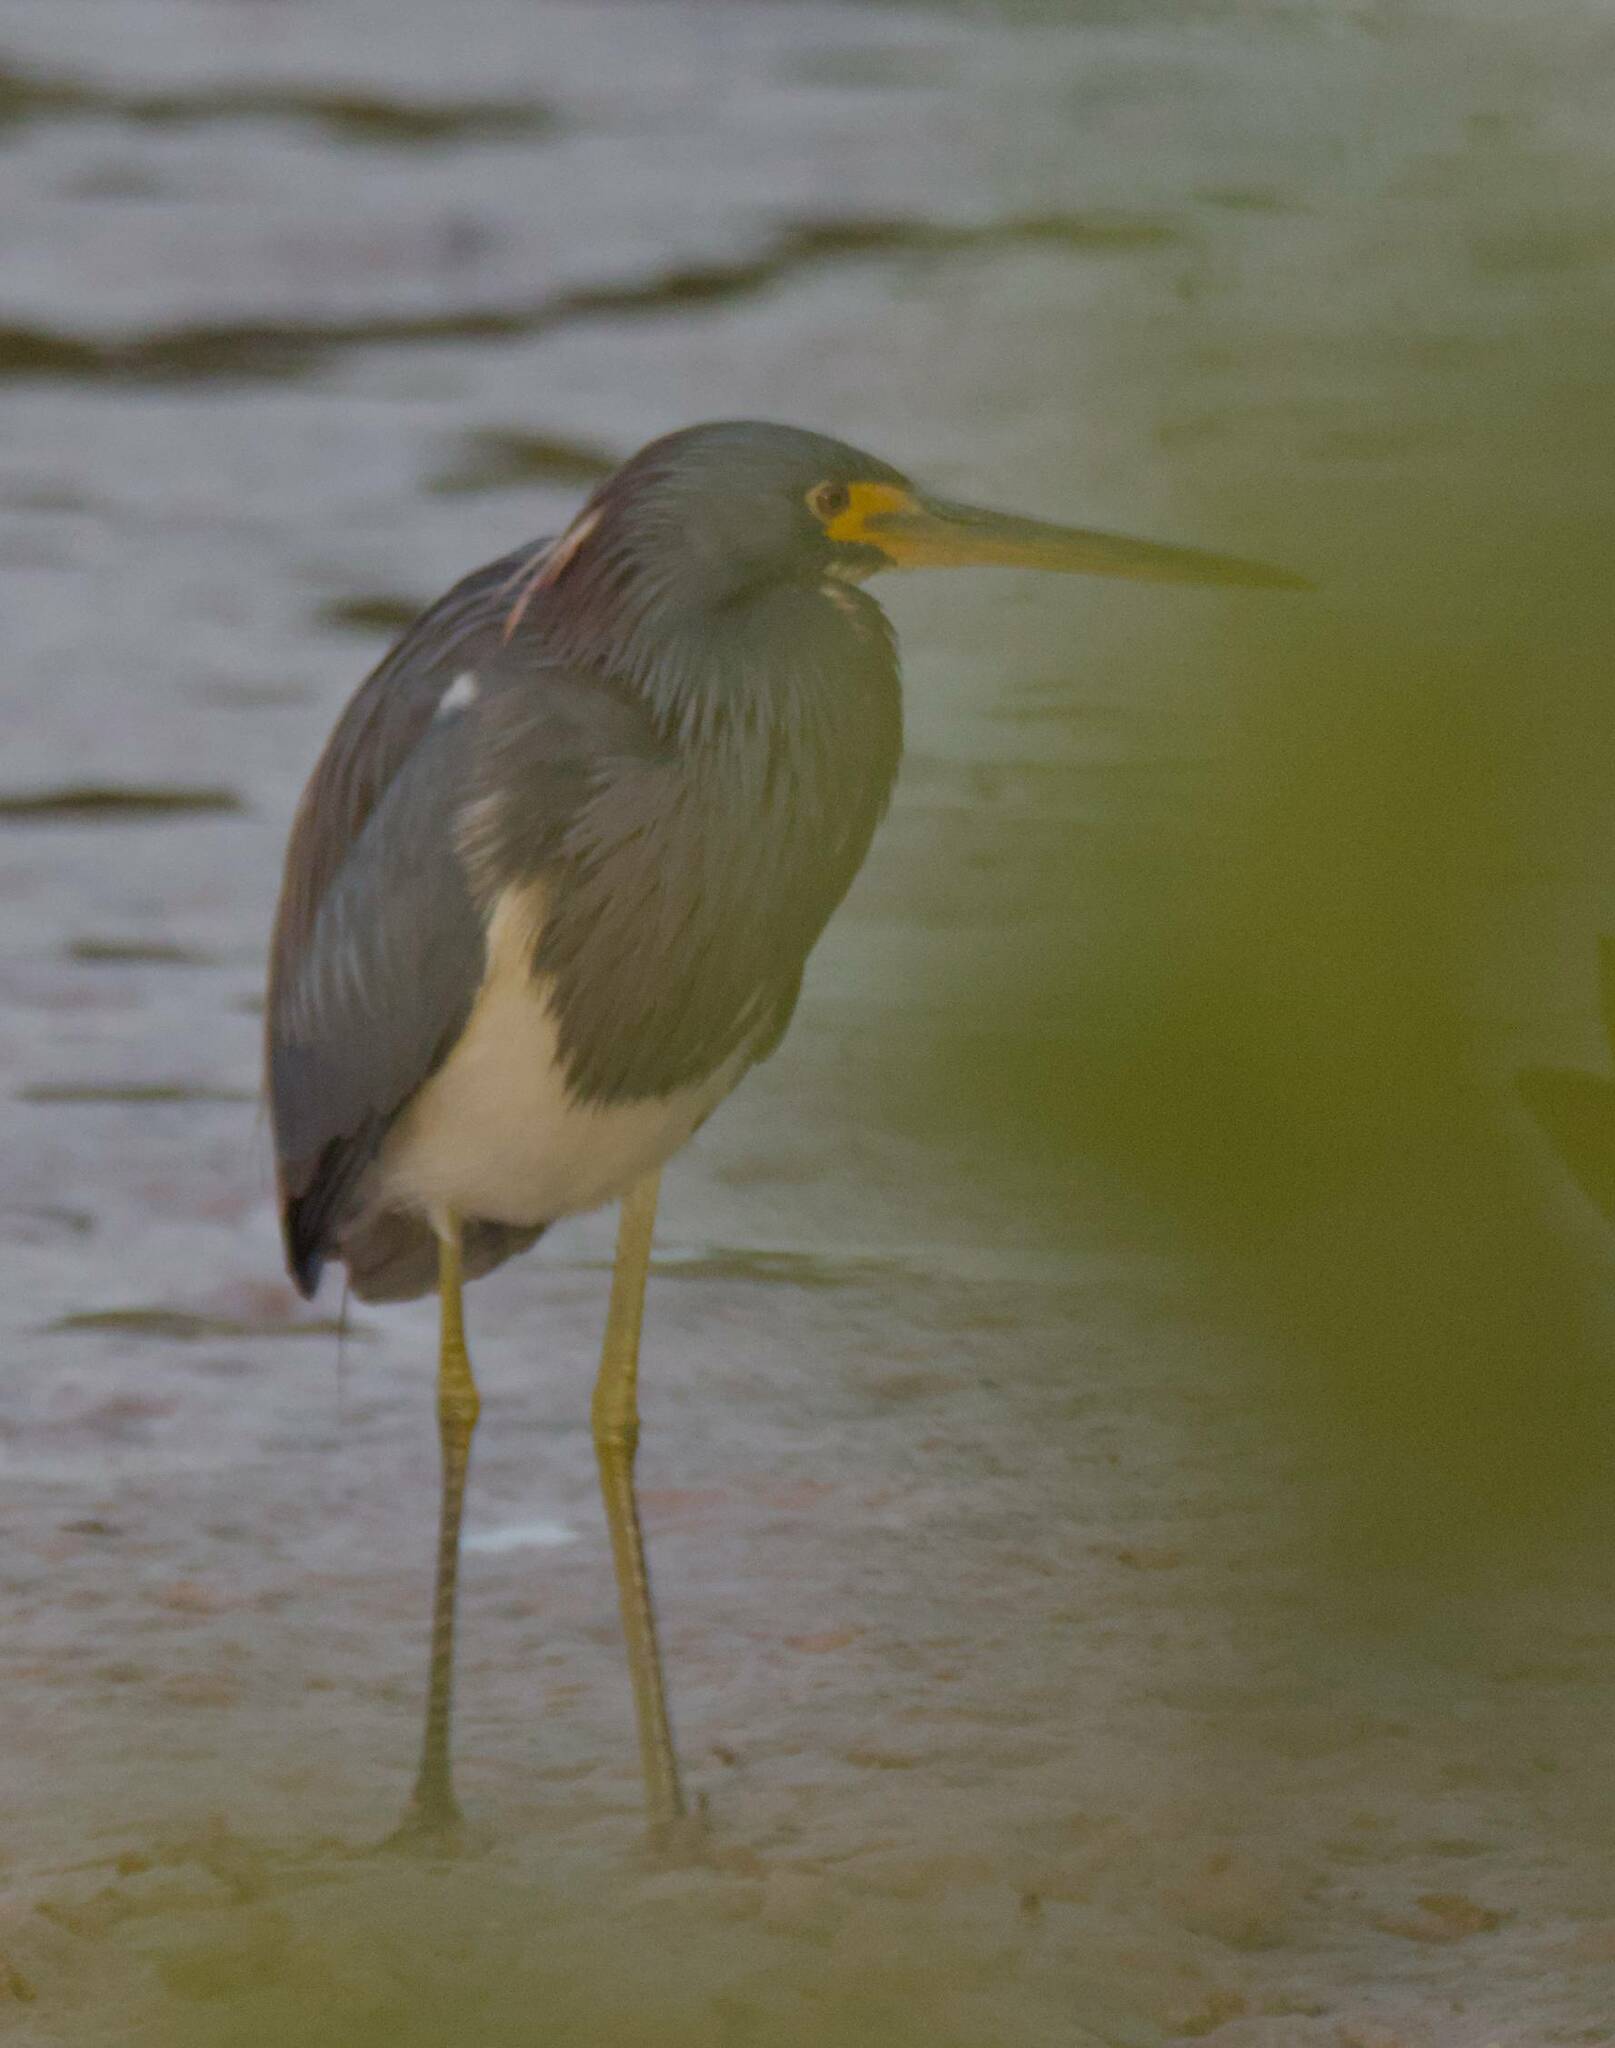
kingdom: Animalia
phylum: Chordata
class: Aves
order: Pelecaniformes
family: Ardeidae
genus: Egretta
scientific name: Egretta tricolor
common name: Tricolored heron
